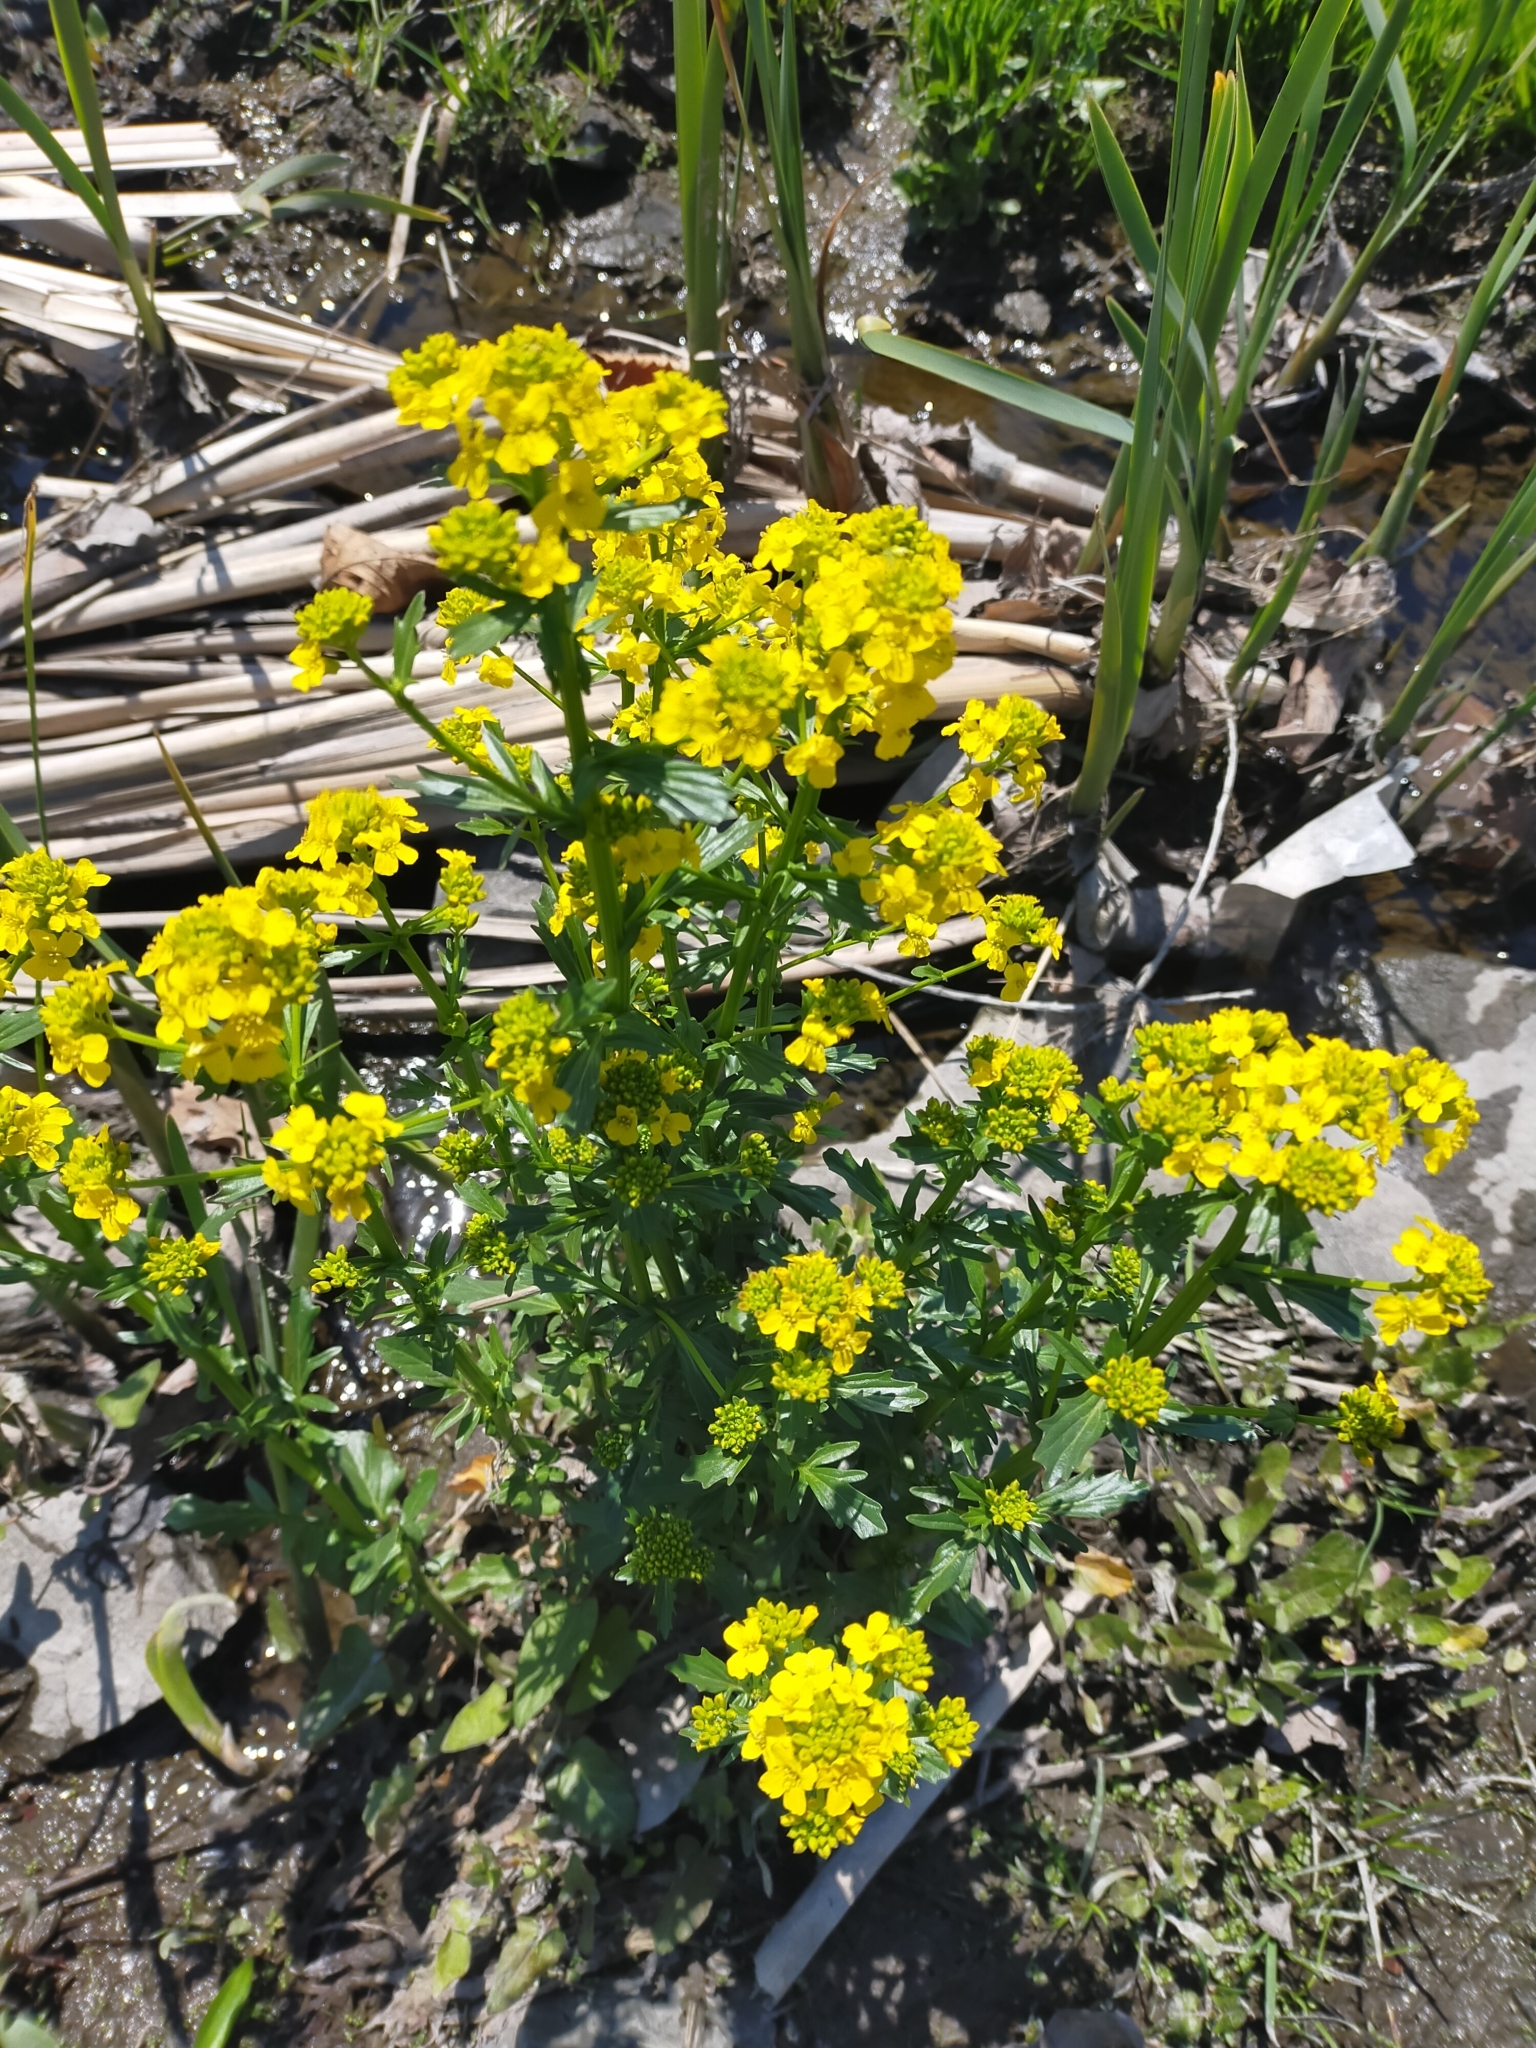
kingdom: Plantae
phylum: Tracheophyta
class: Magnoliopsida
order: Brassicales
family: Brassicaceae
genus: Barbarea
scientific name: Barbarea vulgaris
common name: Cressy-greens
